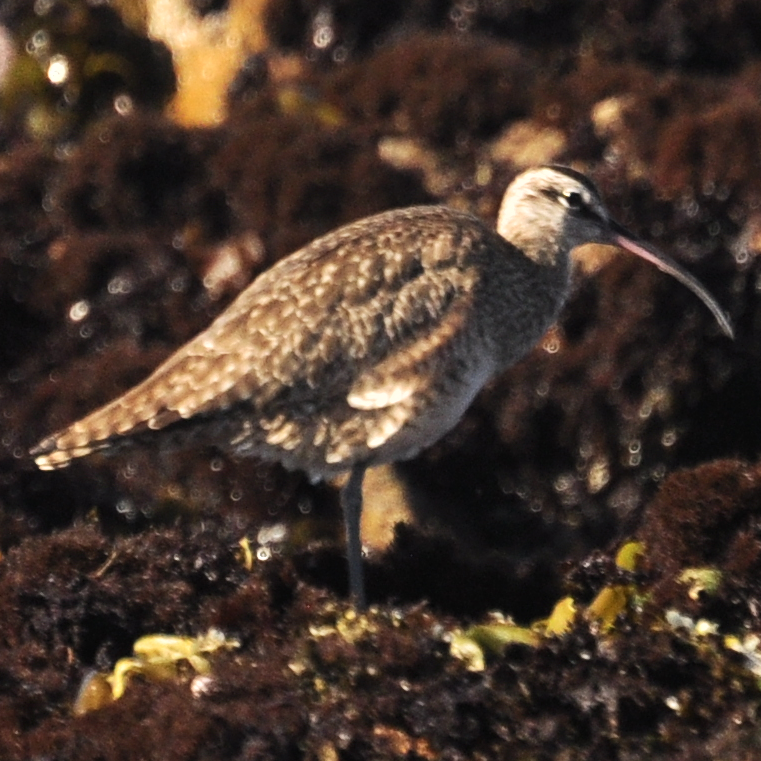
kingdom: Animalia
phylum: Chordata
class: Aves
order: Charadriiformes
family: Scolopacidae
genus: Numenius
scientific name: Numenius phaeopus
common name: Whimbrel
